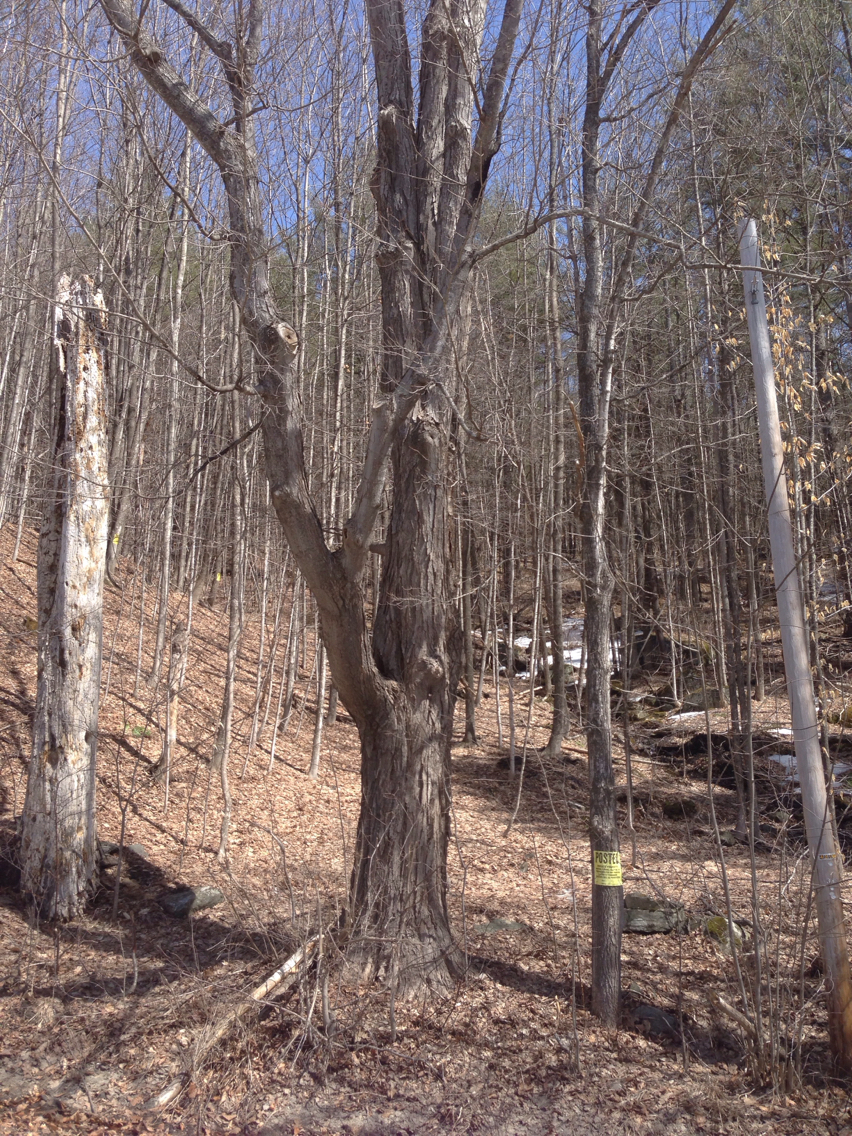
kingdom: Plantae
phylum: Tracheophyta
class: Magnoliopsida
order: Sapindales
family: Sapindaceae
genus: Acer
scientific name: Acer saccharum
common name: Sugar maple
